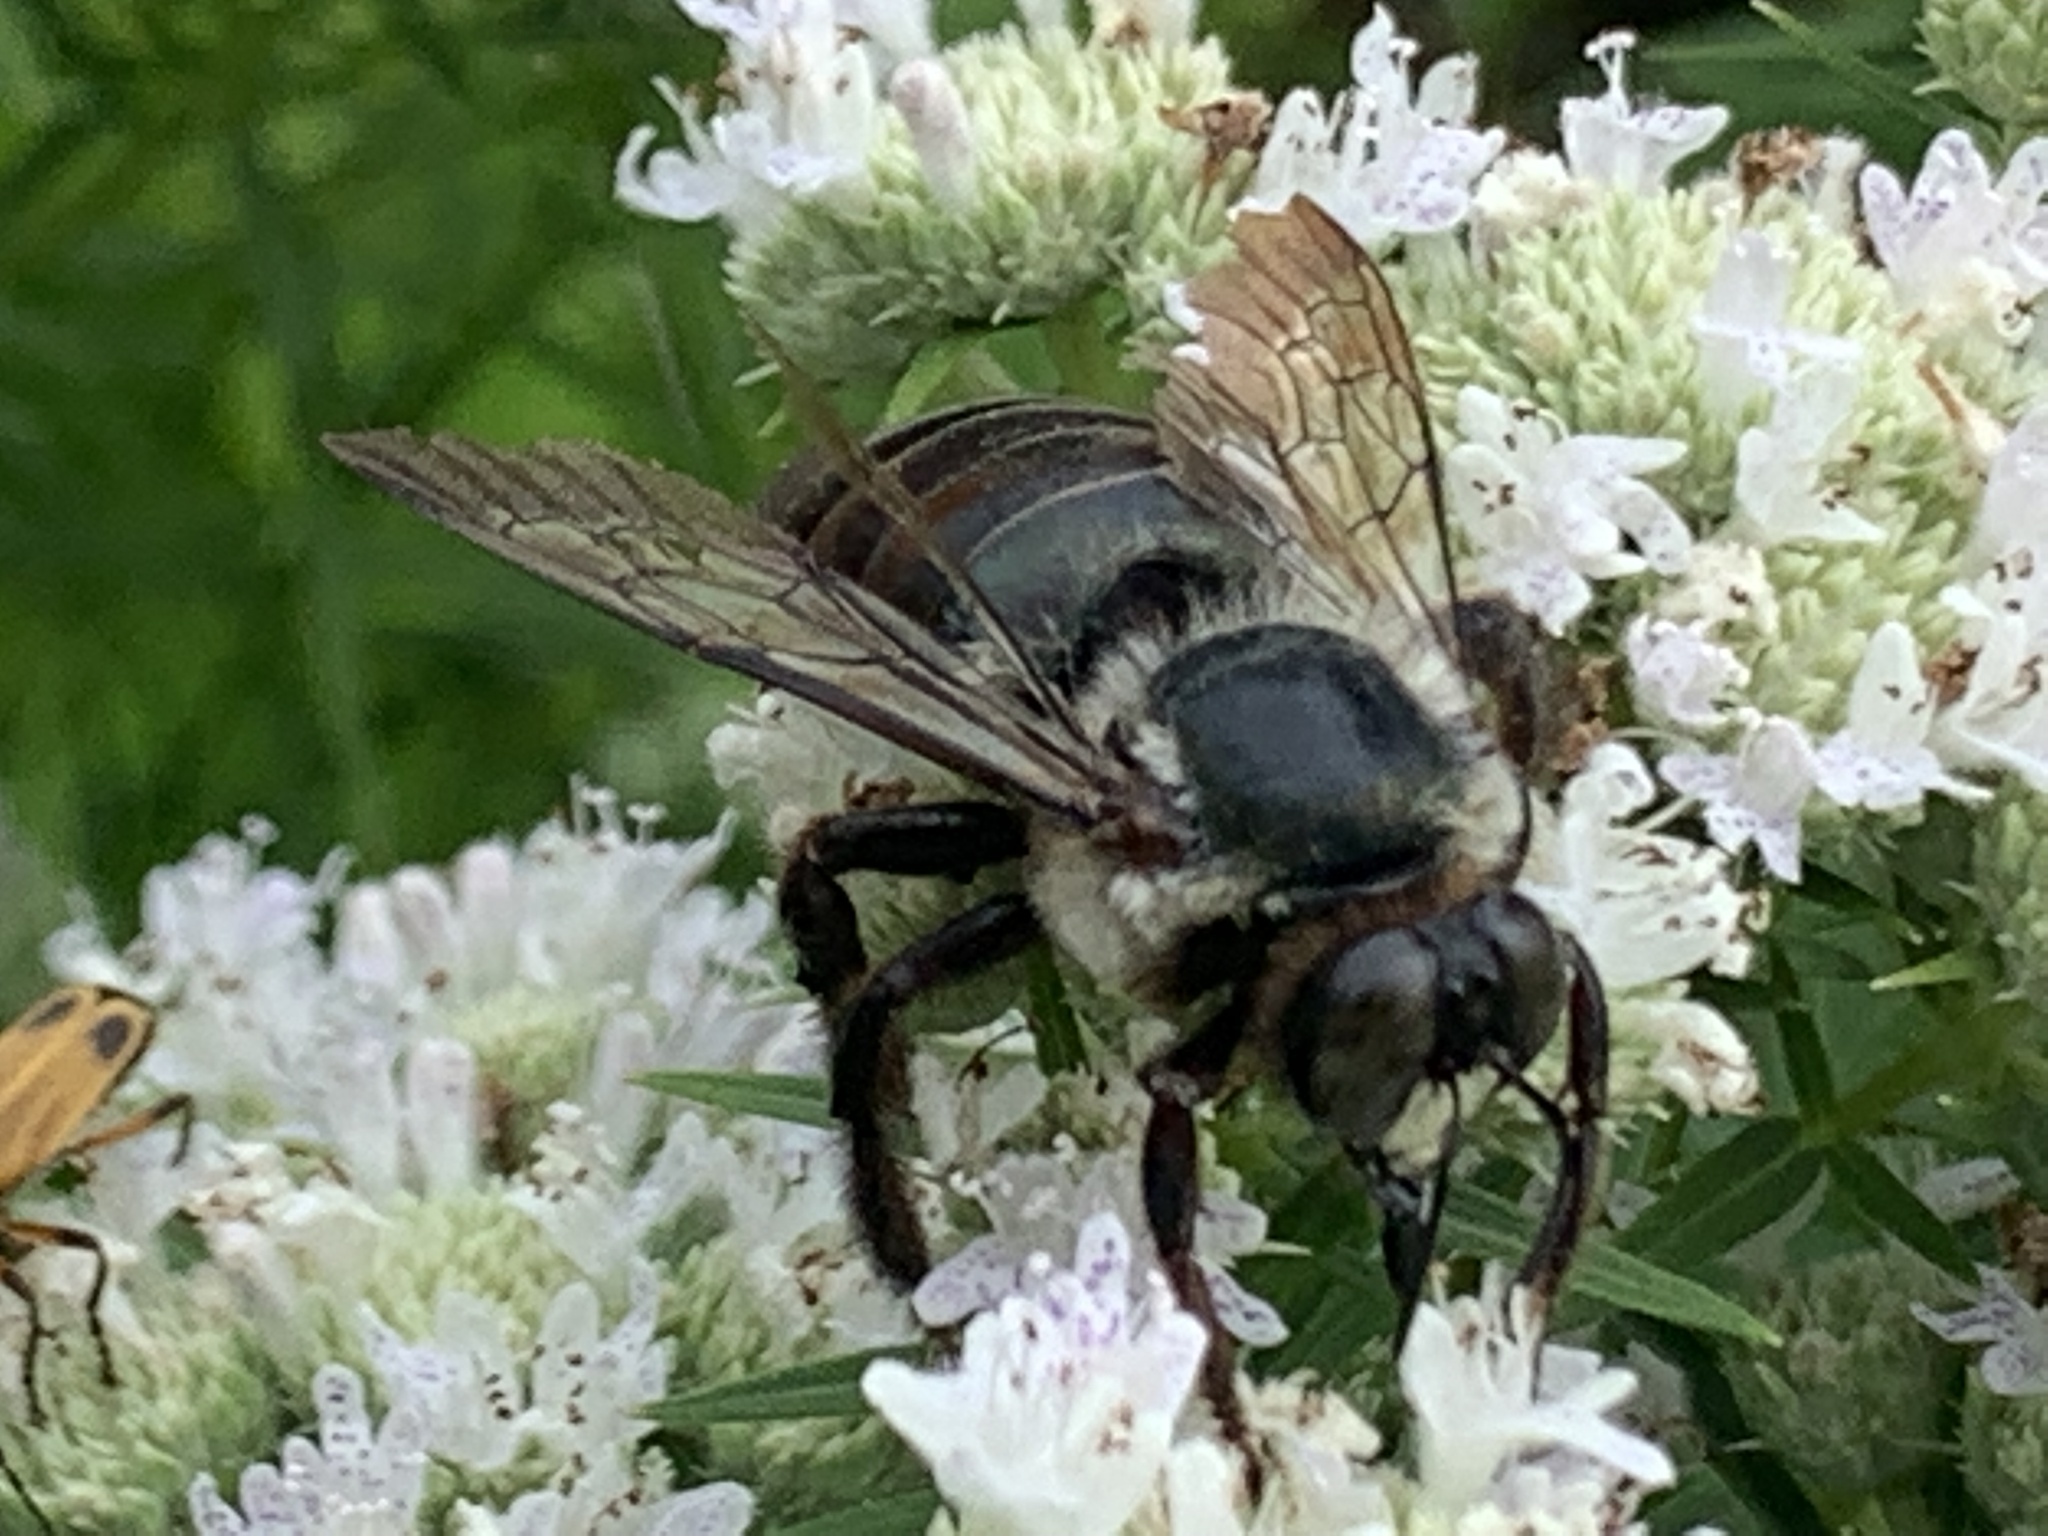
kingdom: Animalia
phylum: Arthropoda
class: Insecta
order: Hymenoptera
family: Apidae
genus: Xylocopa
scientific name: Xylocopa virginica
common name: Carpenter bee
